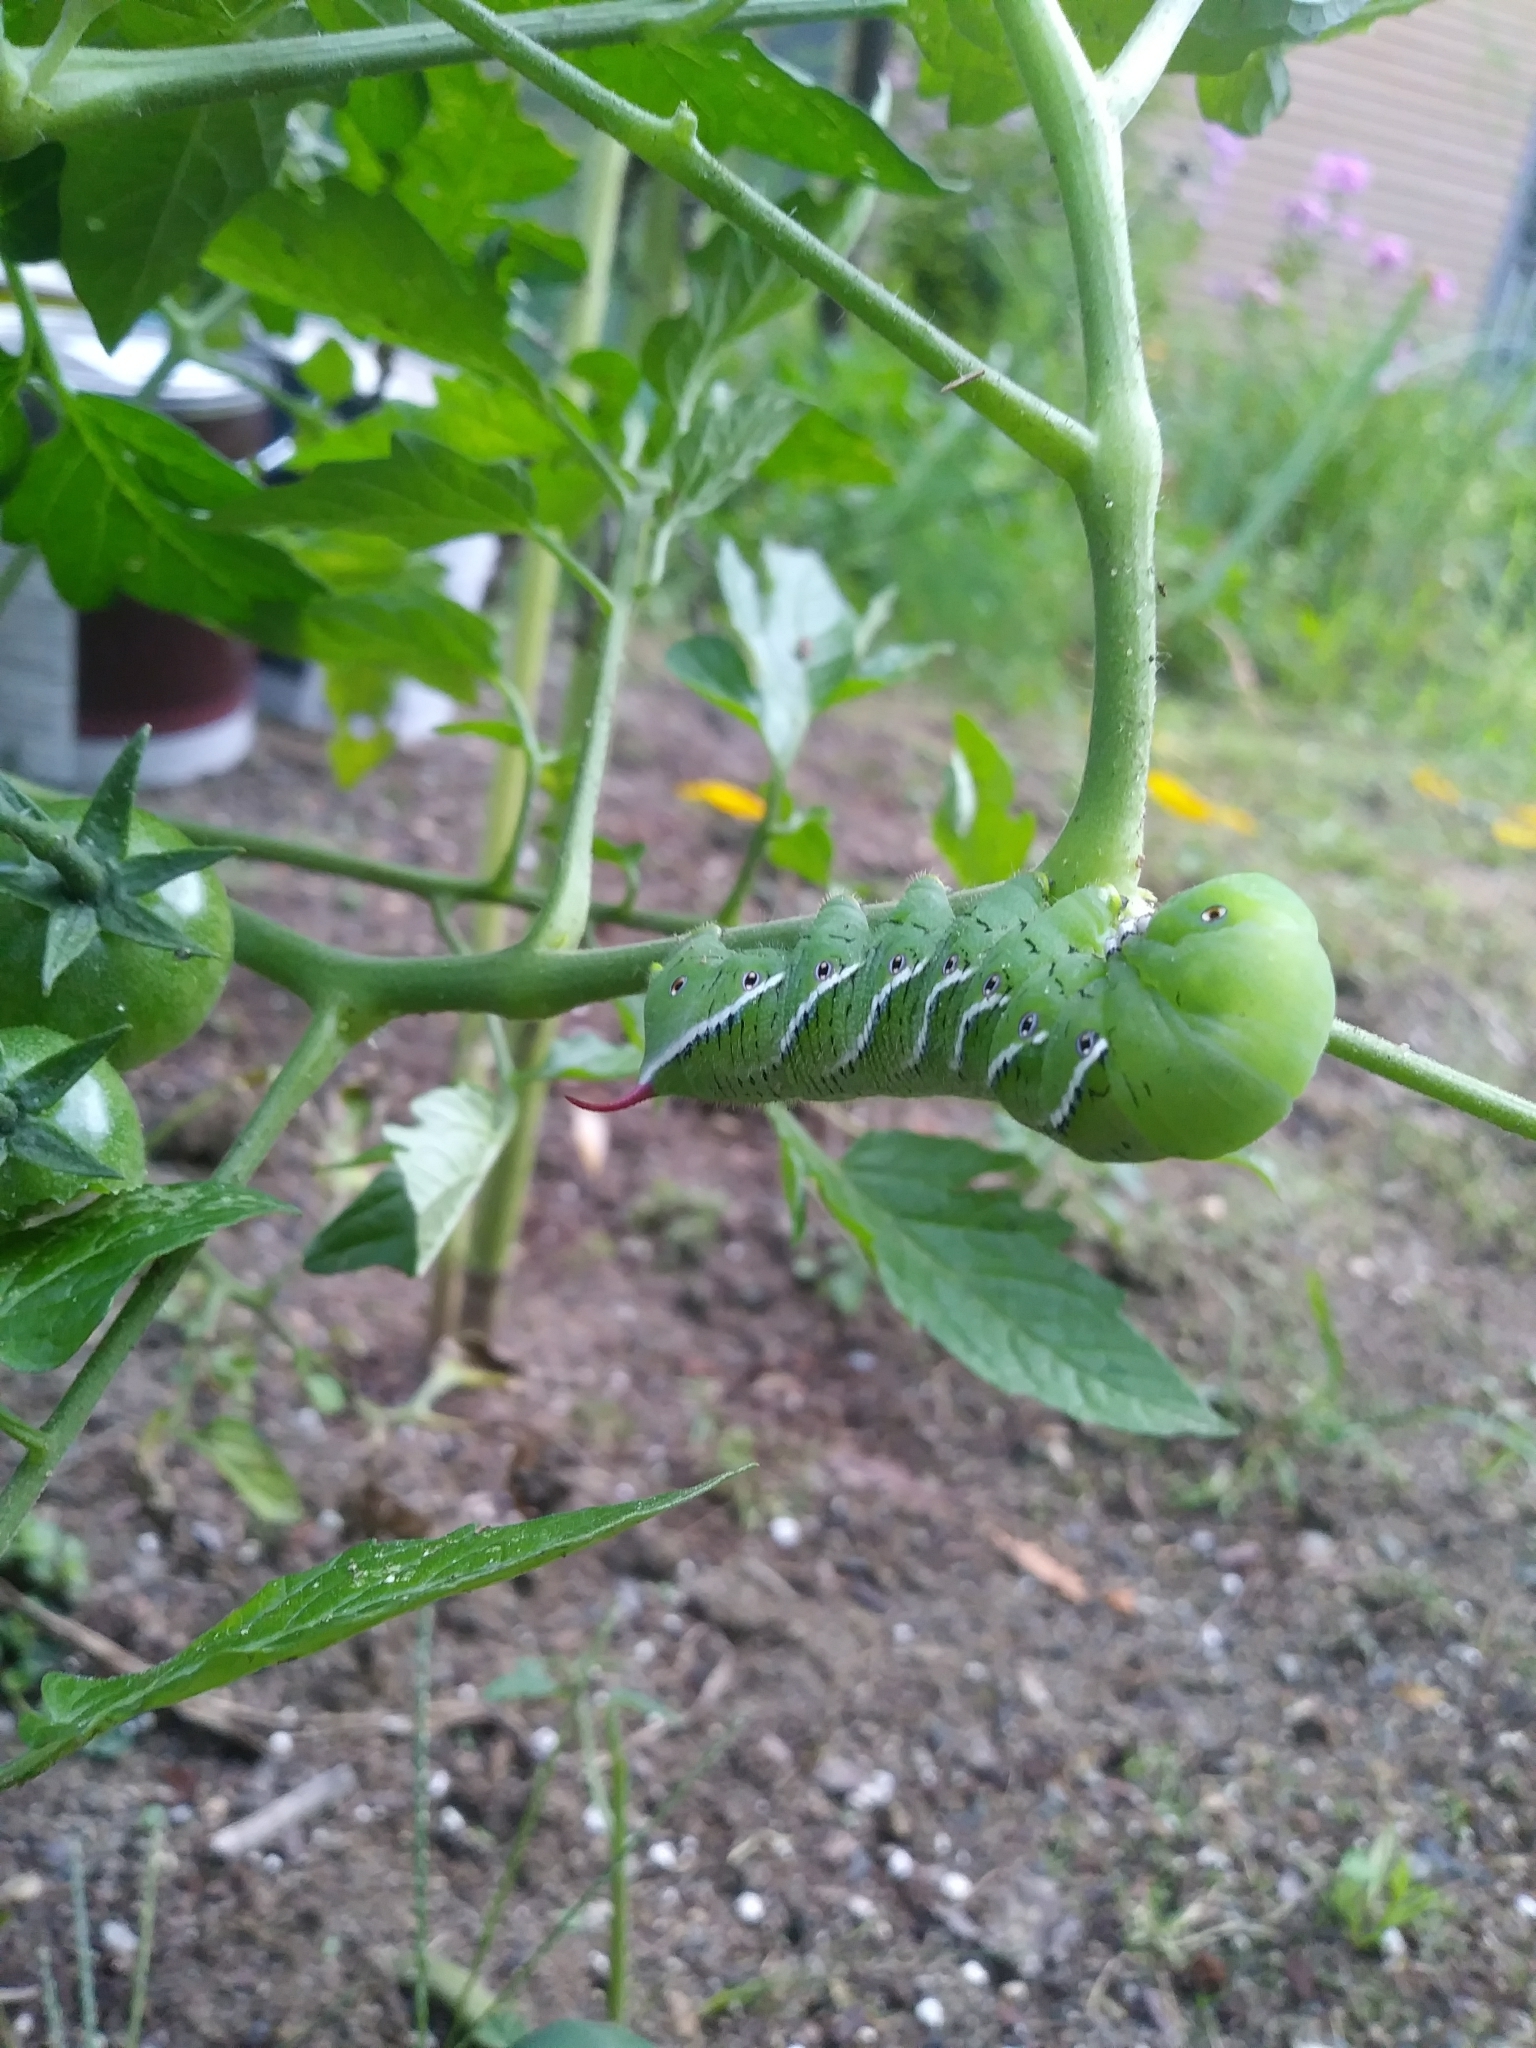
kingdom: Animalia
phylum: Arthropoda
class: Insecta
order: Lepidoptera
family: Sphingidae
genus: Manduca
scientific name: Manduca sexta
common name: Carolina sphinx
